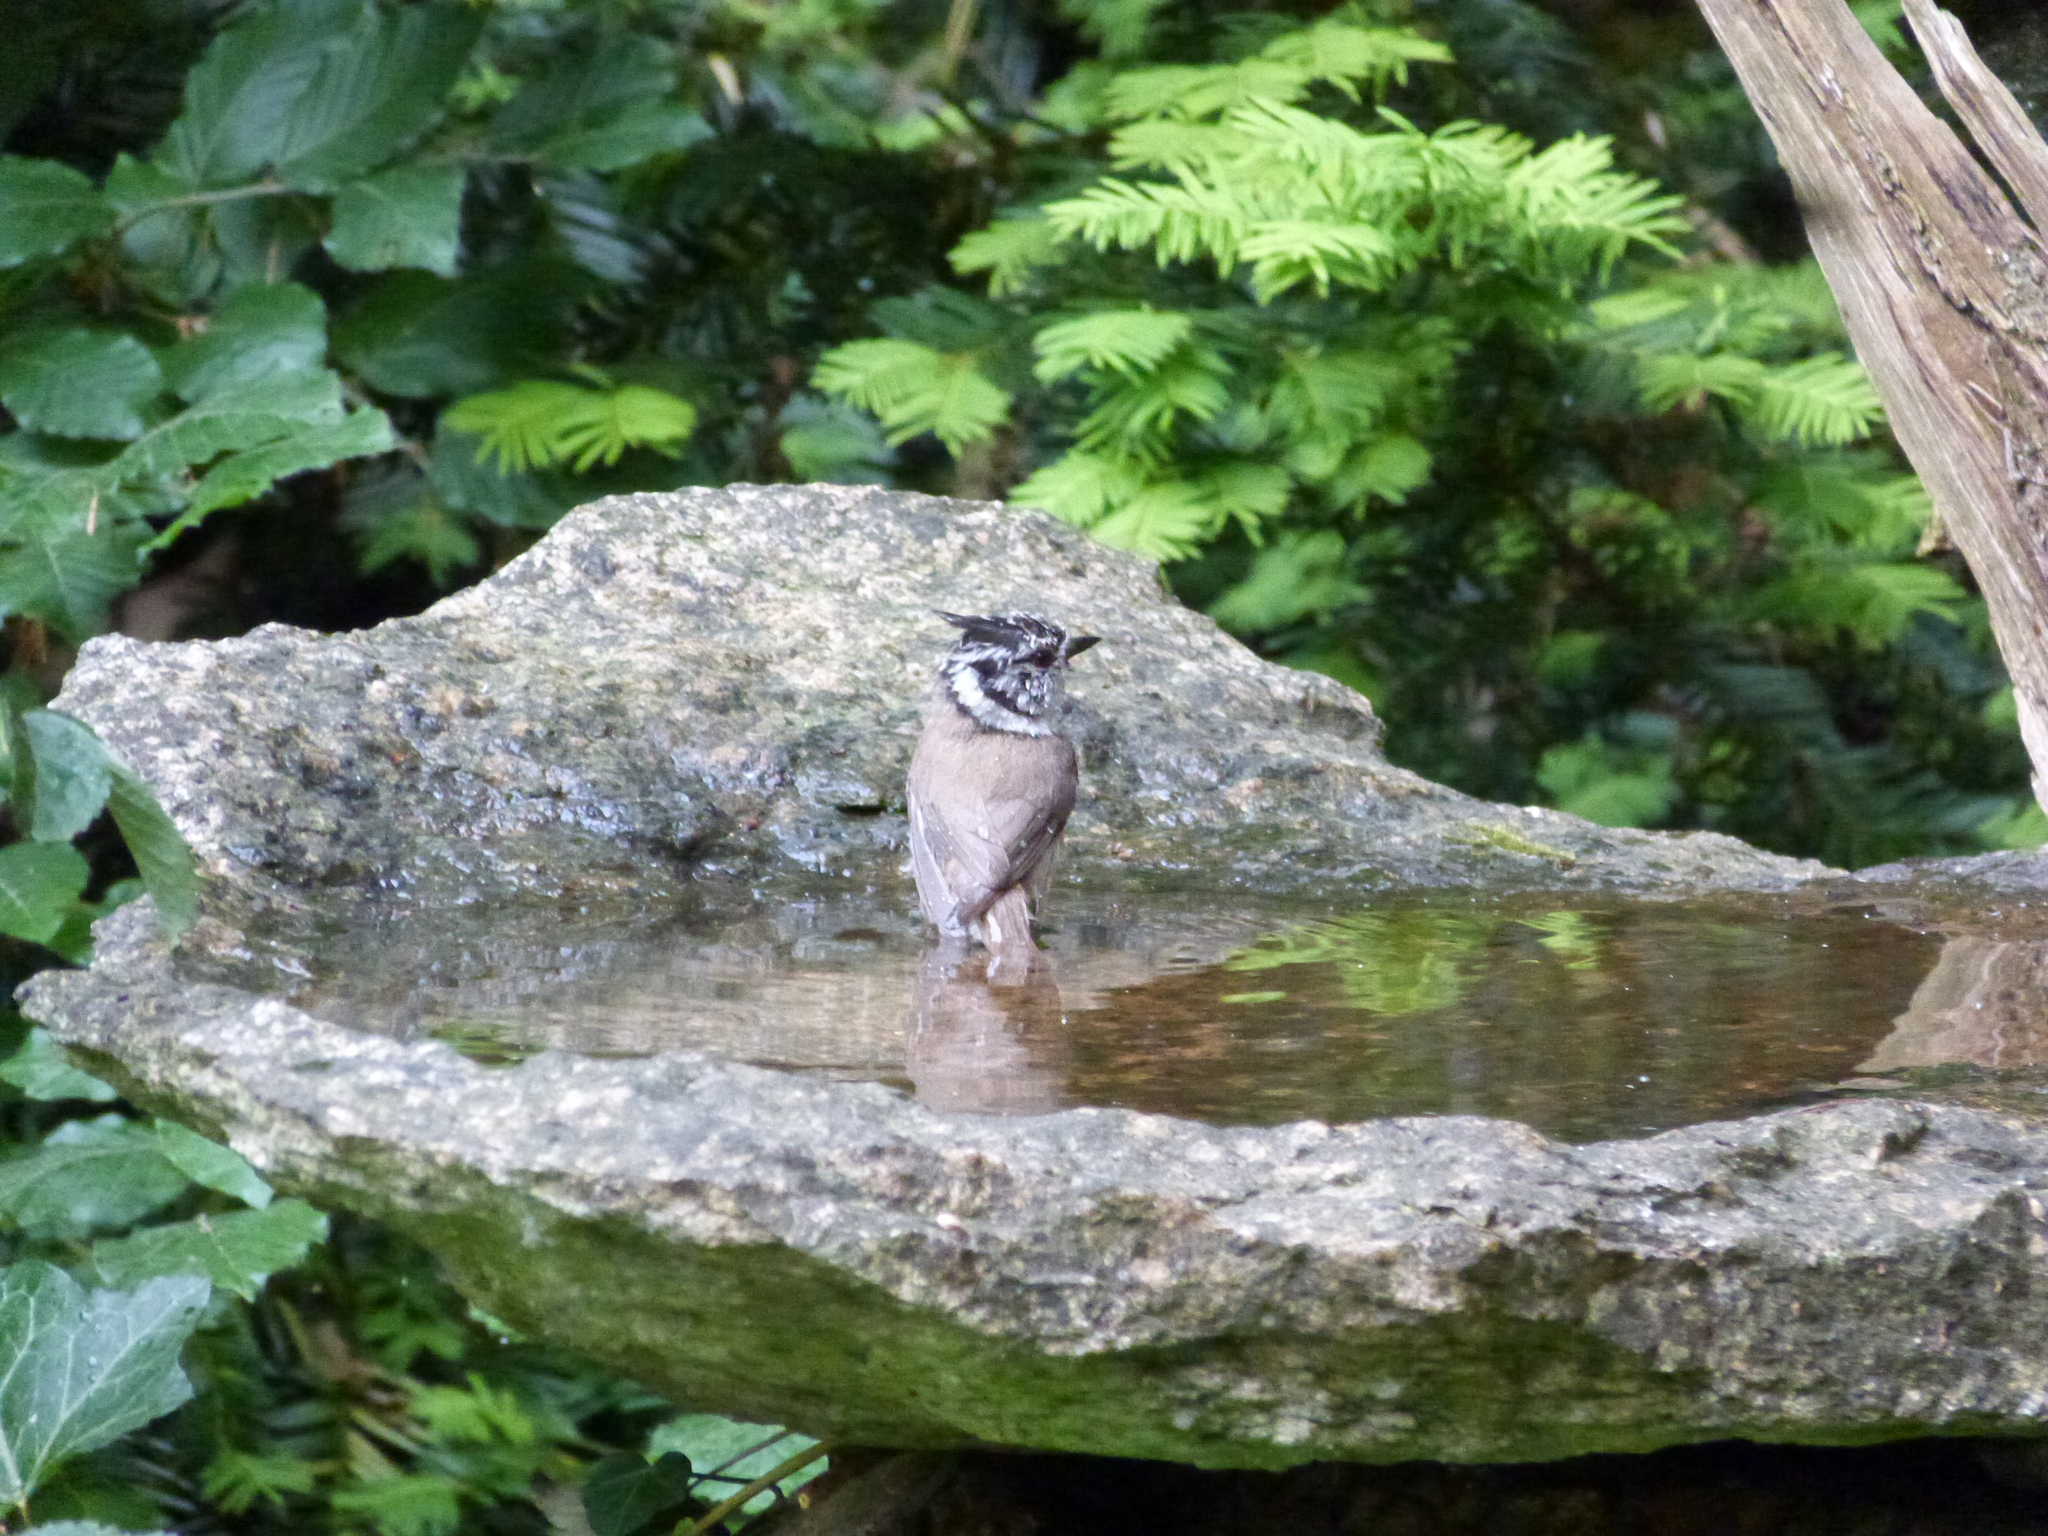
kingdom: Animalia
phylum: Chordata
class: Aves
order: Passeriformes
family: Paridae
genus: Lophophanes
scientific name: Lophophanes cristatus
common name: European crested tit
